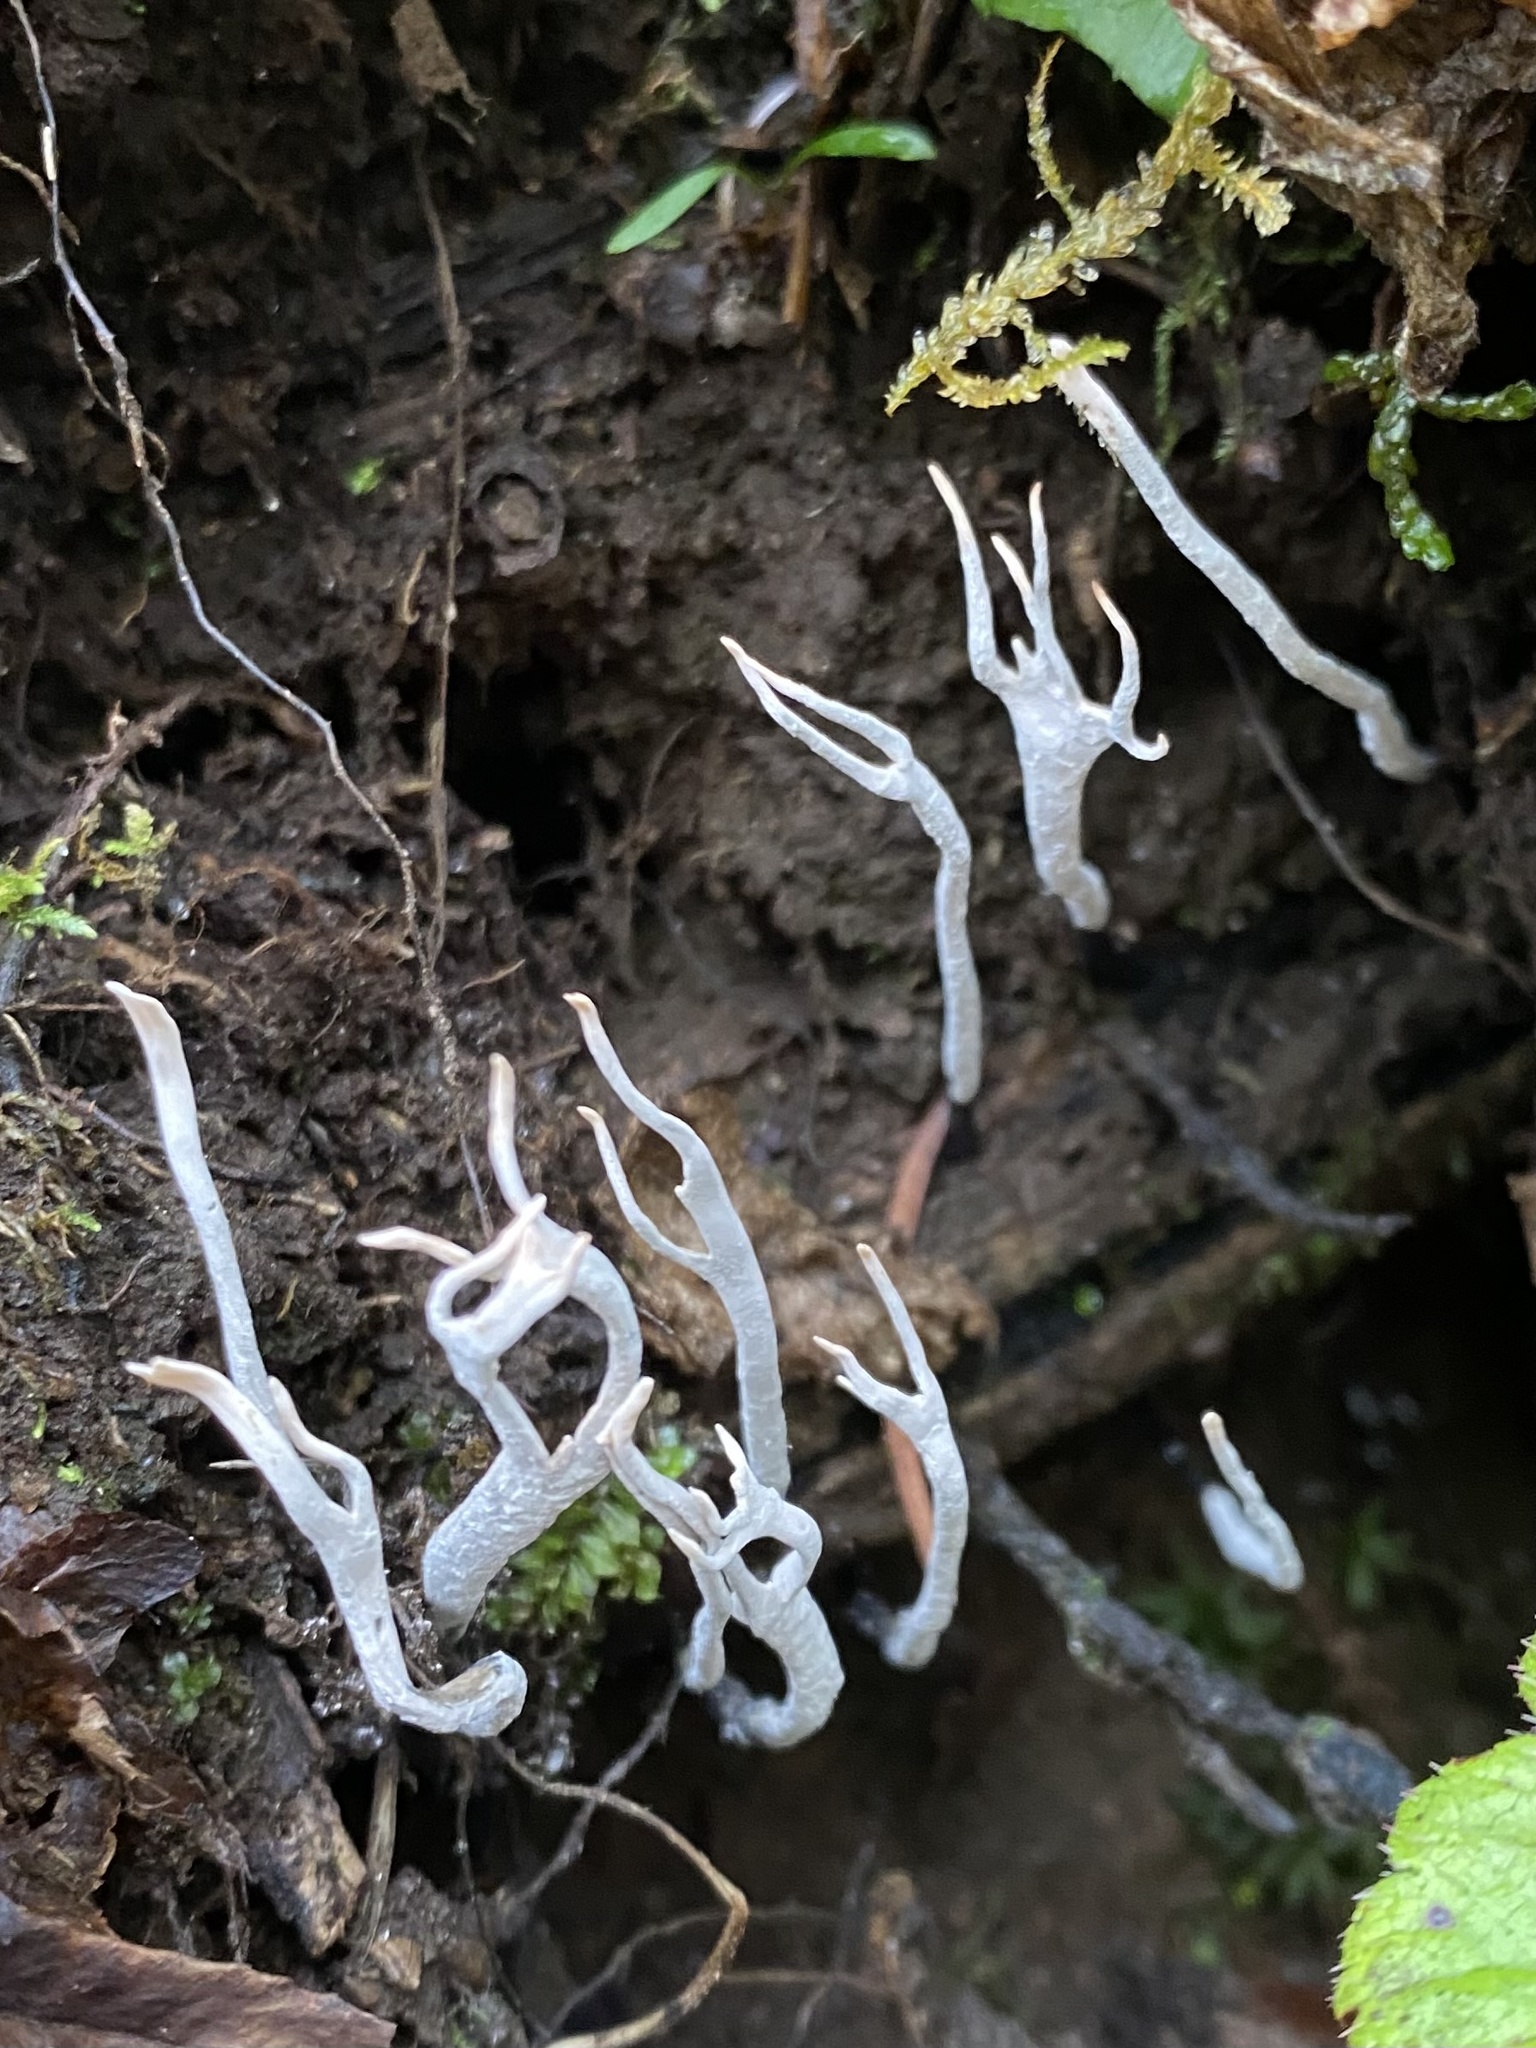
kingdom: Fungi
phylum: Ascomycota
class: Sordariomycetes
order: Xylariales
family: Xylariaceae
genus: Xylaria
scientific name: Xylaria hypoxylon
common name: Candle-snuff fungus
